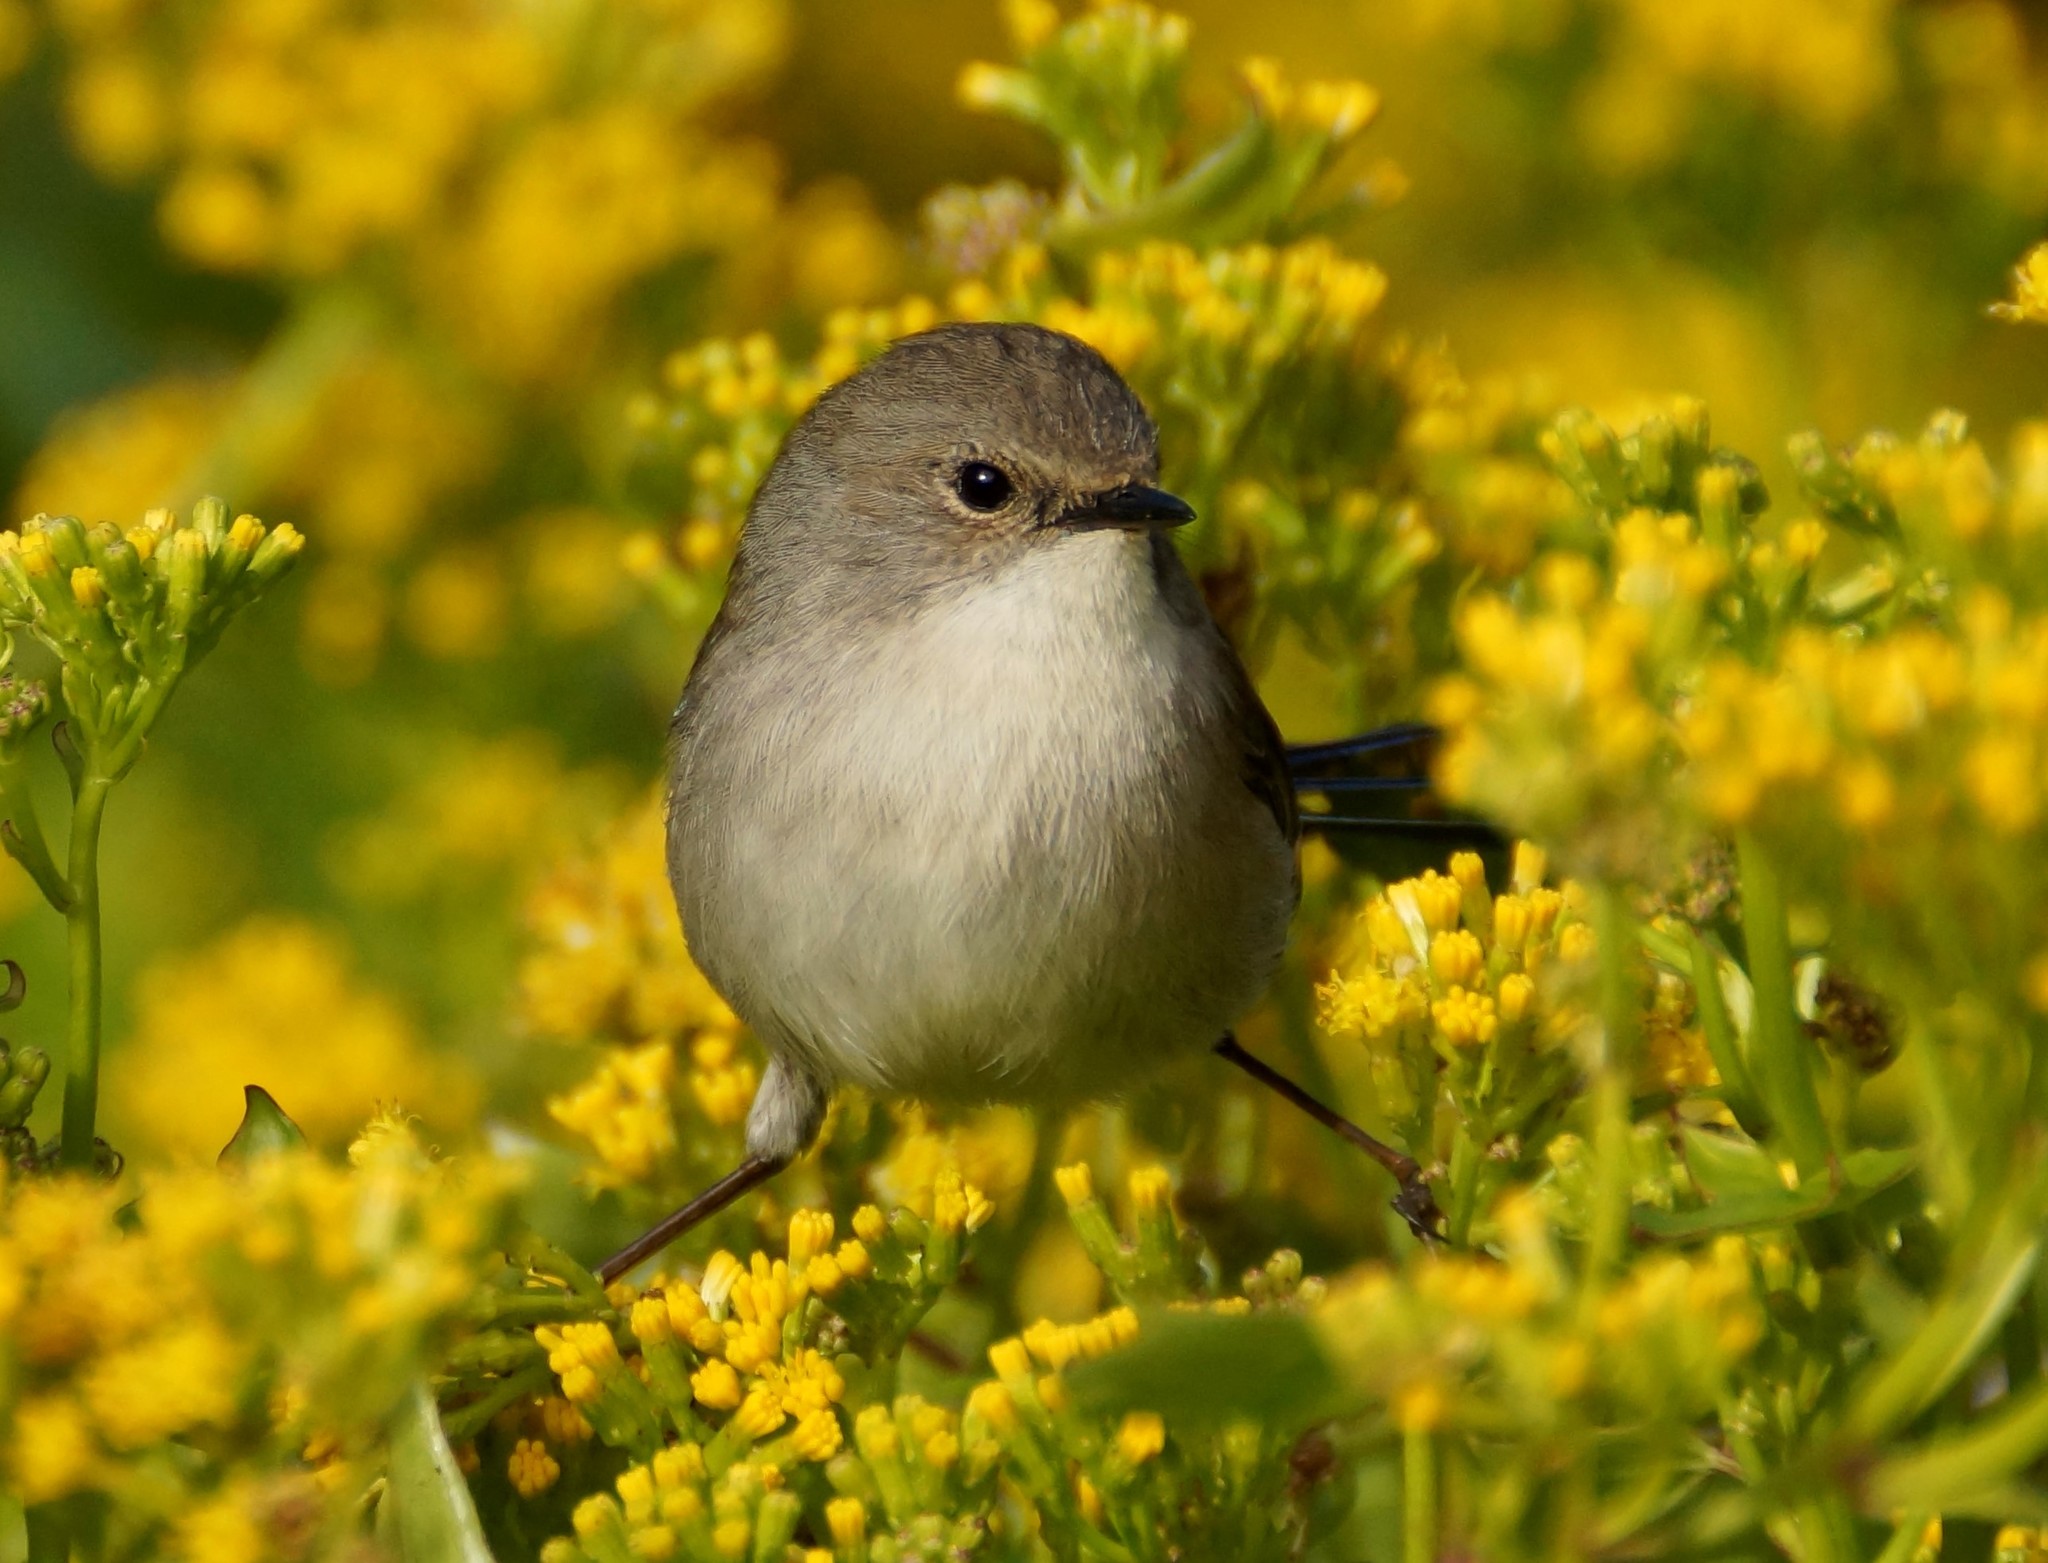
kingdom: Animalia
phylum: Chordata
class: Aves
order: Passeriformes
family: Maluridae
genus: Malurus
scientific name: Malurus cyaneus
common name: Superb fairywren
